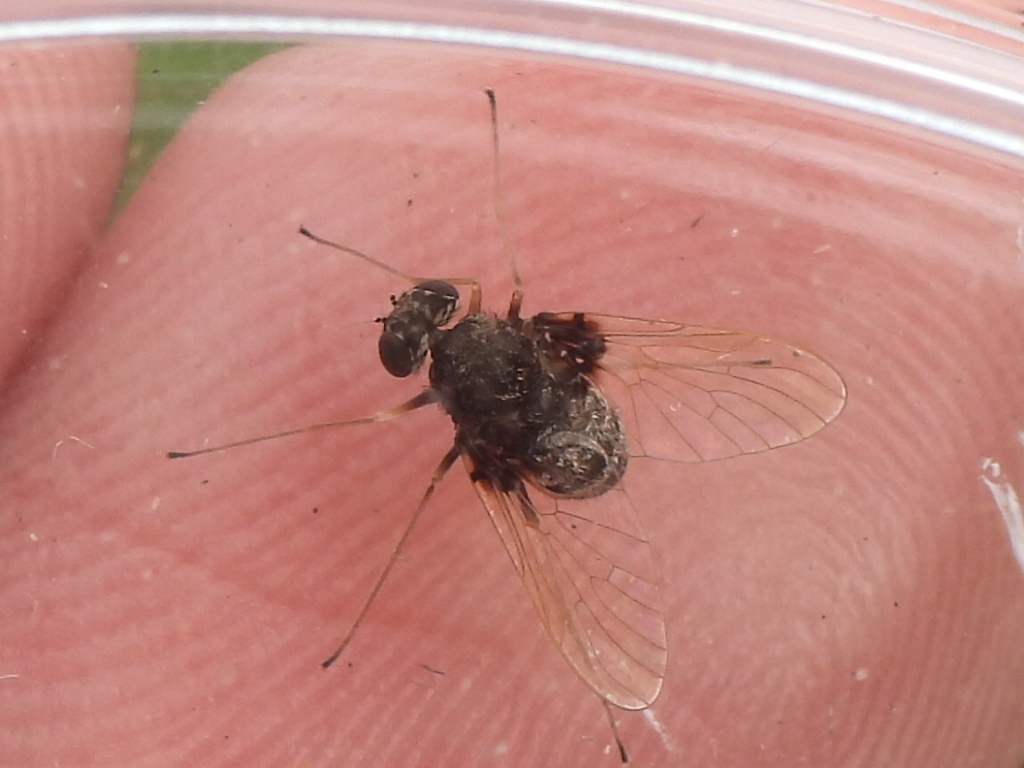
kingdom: Animalia
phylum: Arthropoda
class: Insecta
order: Diptera
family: Rhagionidae
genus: Chrysopilus
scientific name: Chrysopilus basilaris
